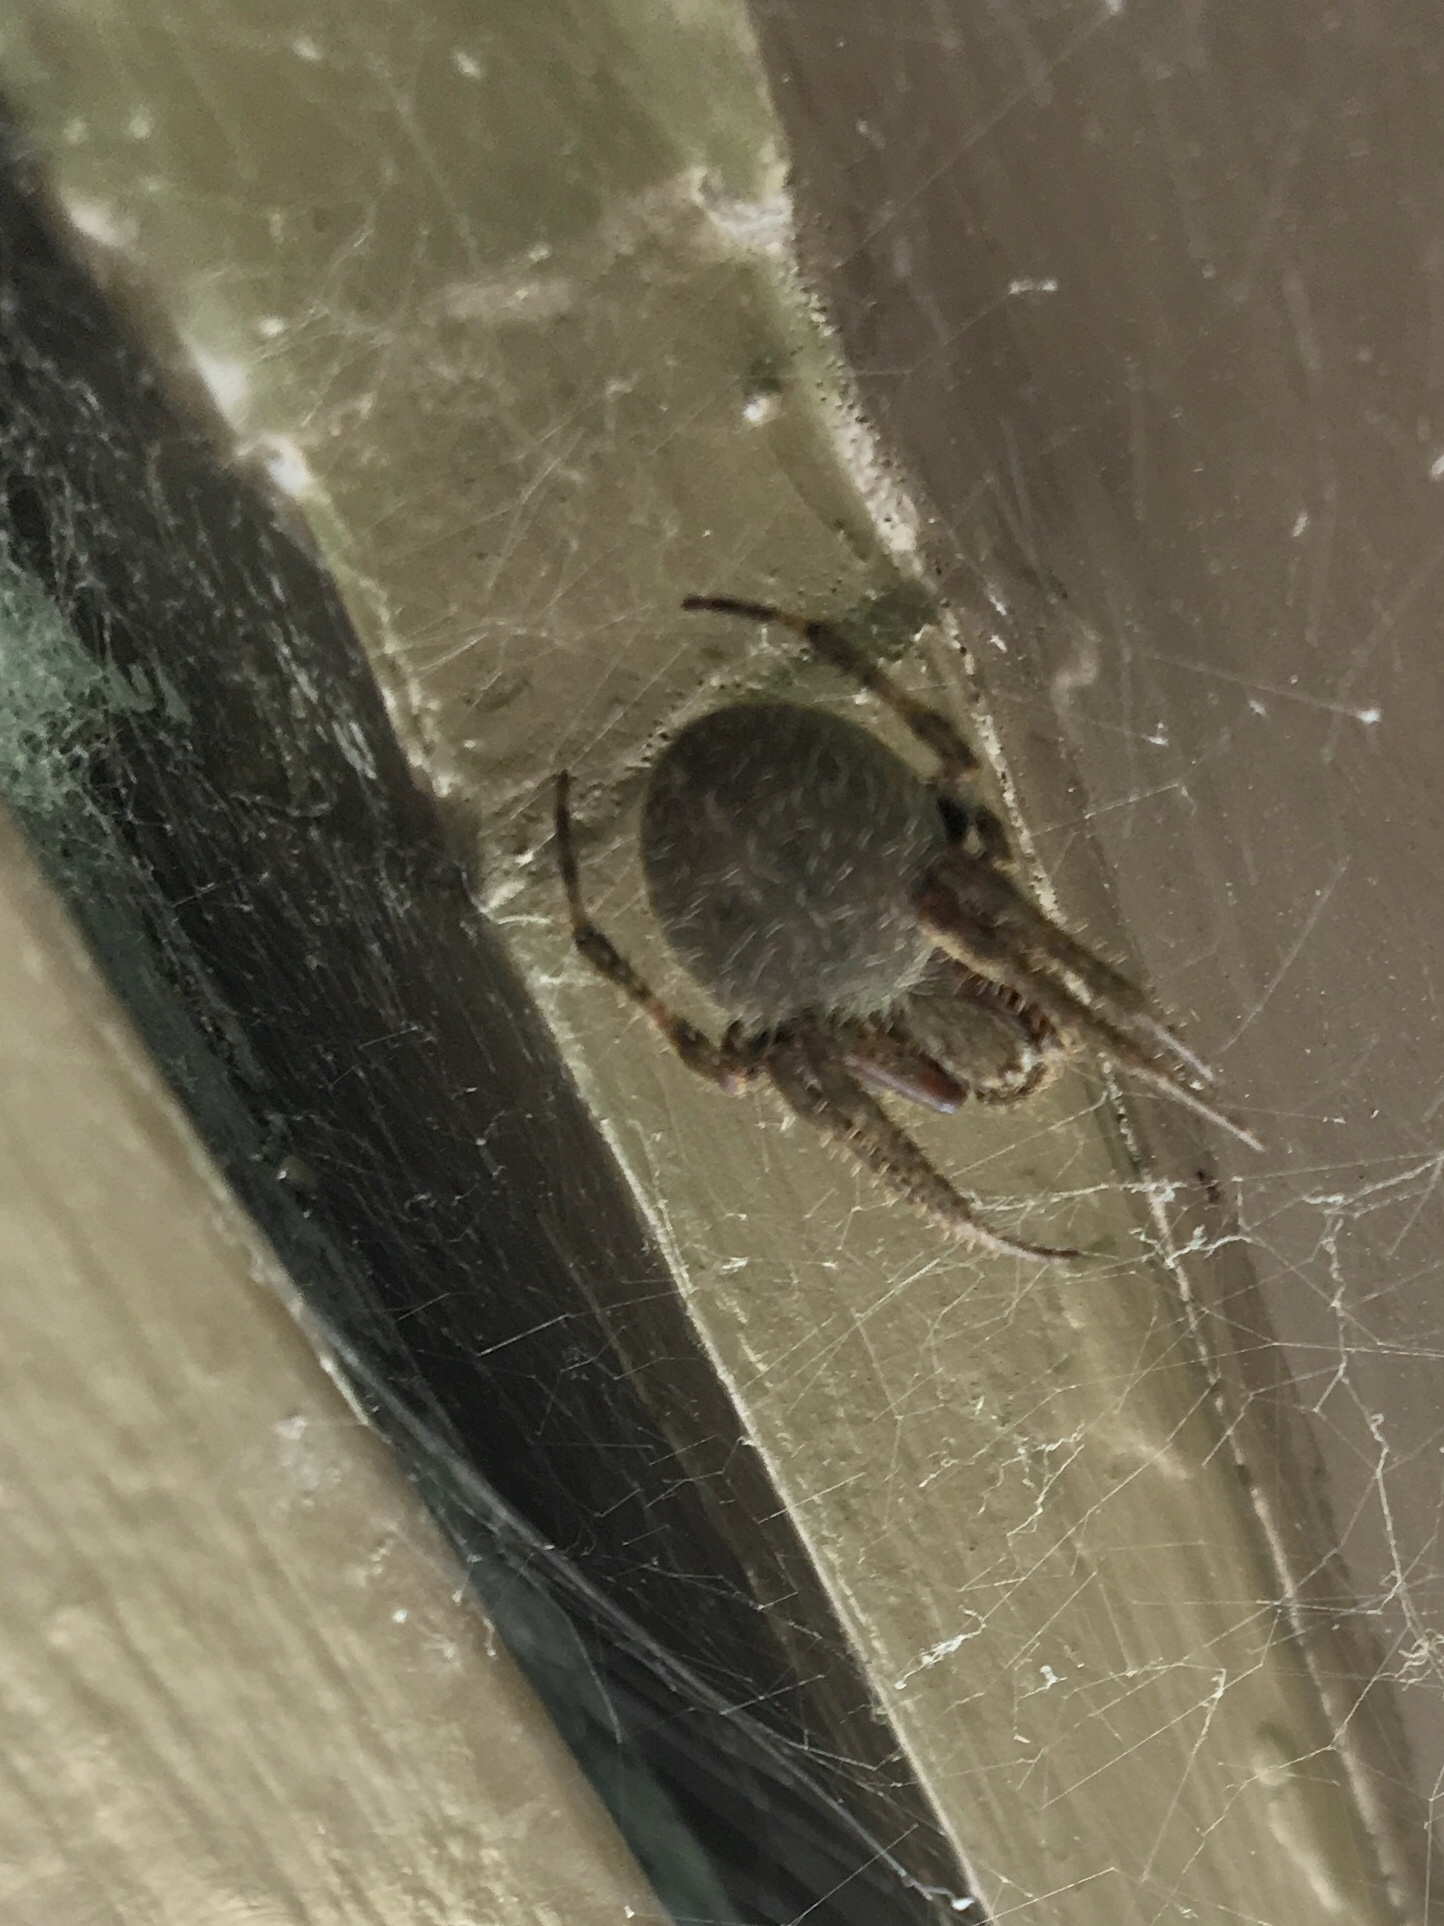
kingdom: Animalia
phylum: Arthropoda
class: Arachnida
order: Araneae
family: Araneidae
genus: Neoscona
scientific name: Neoscona crucifera
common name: Spotted orbweaver
